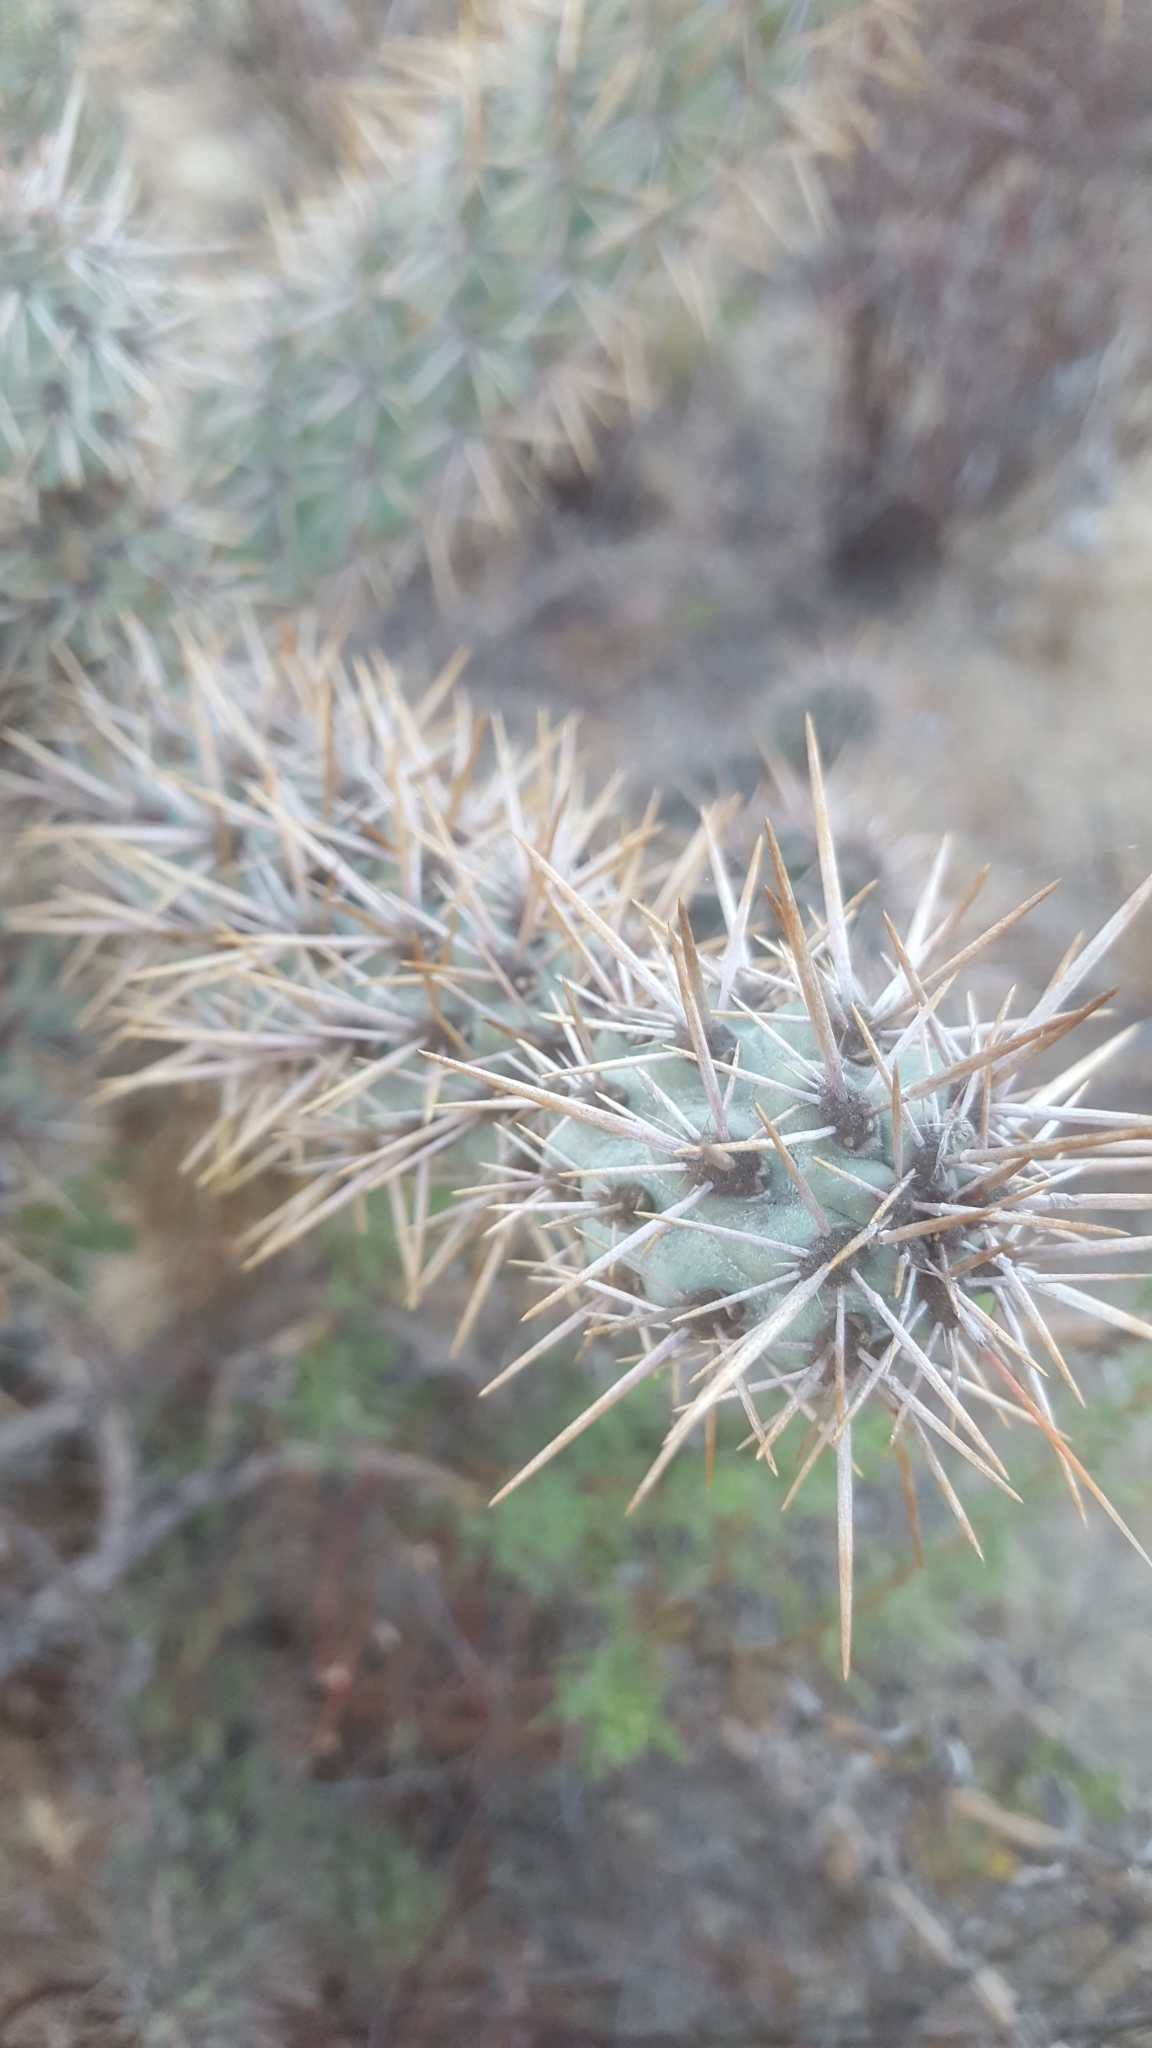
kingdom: Plantae
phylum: Tracheophyta
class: Magnoliopsida
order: Caryophyllales
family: Cactaceae
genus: Cylindropuntia
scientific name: Cylindropuntia prolifera
